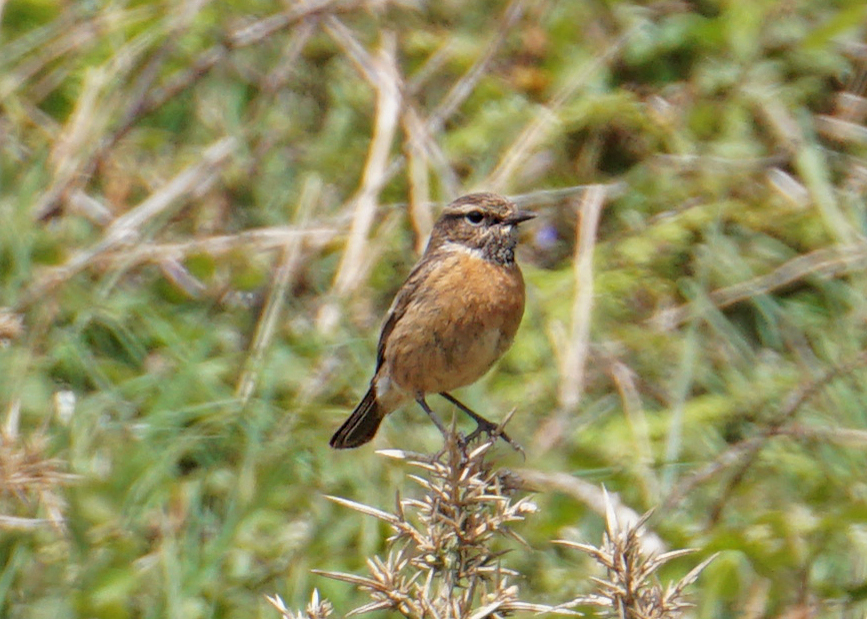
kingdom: Animalia
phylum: Chordata
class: Aves
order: Passeriformes
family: Muscicapidae
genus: Saxicola
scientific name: Saxicola rubicola
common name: European stonechat
